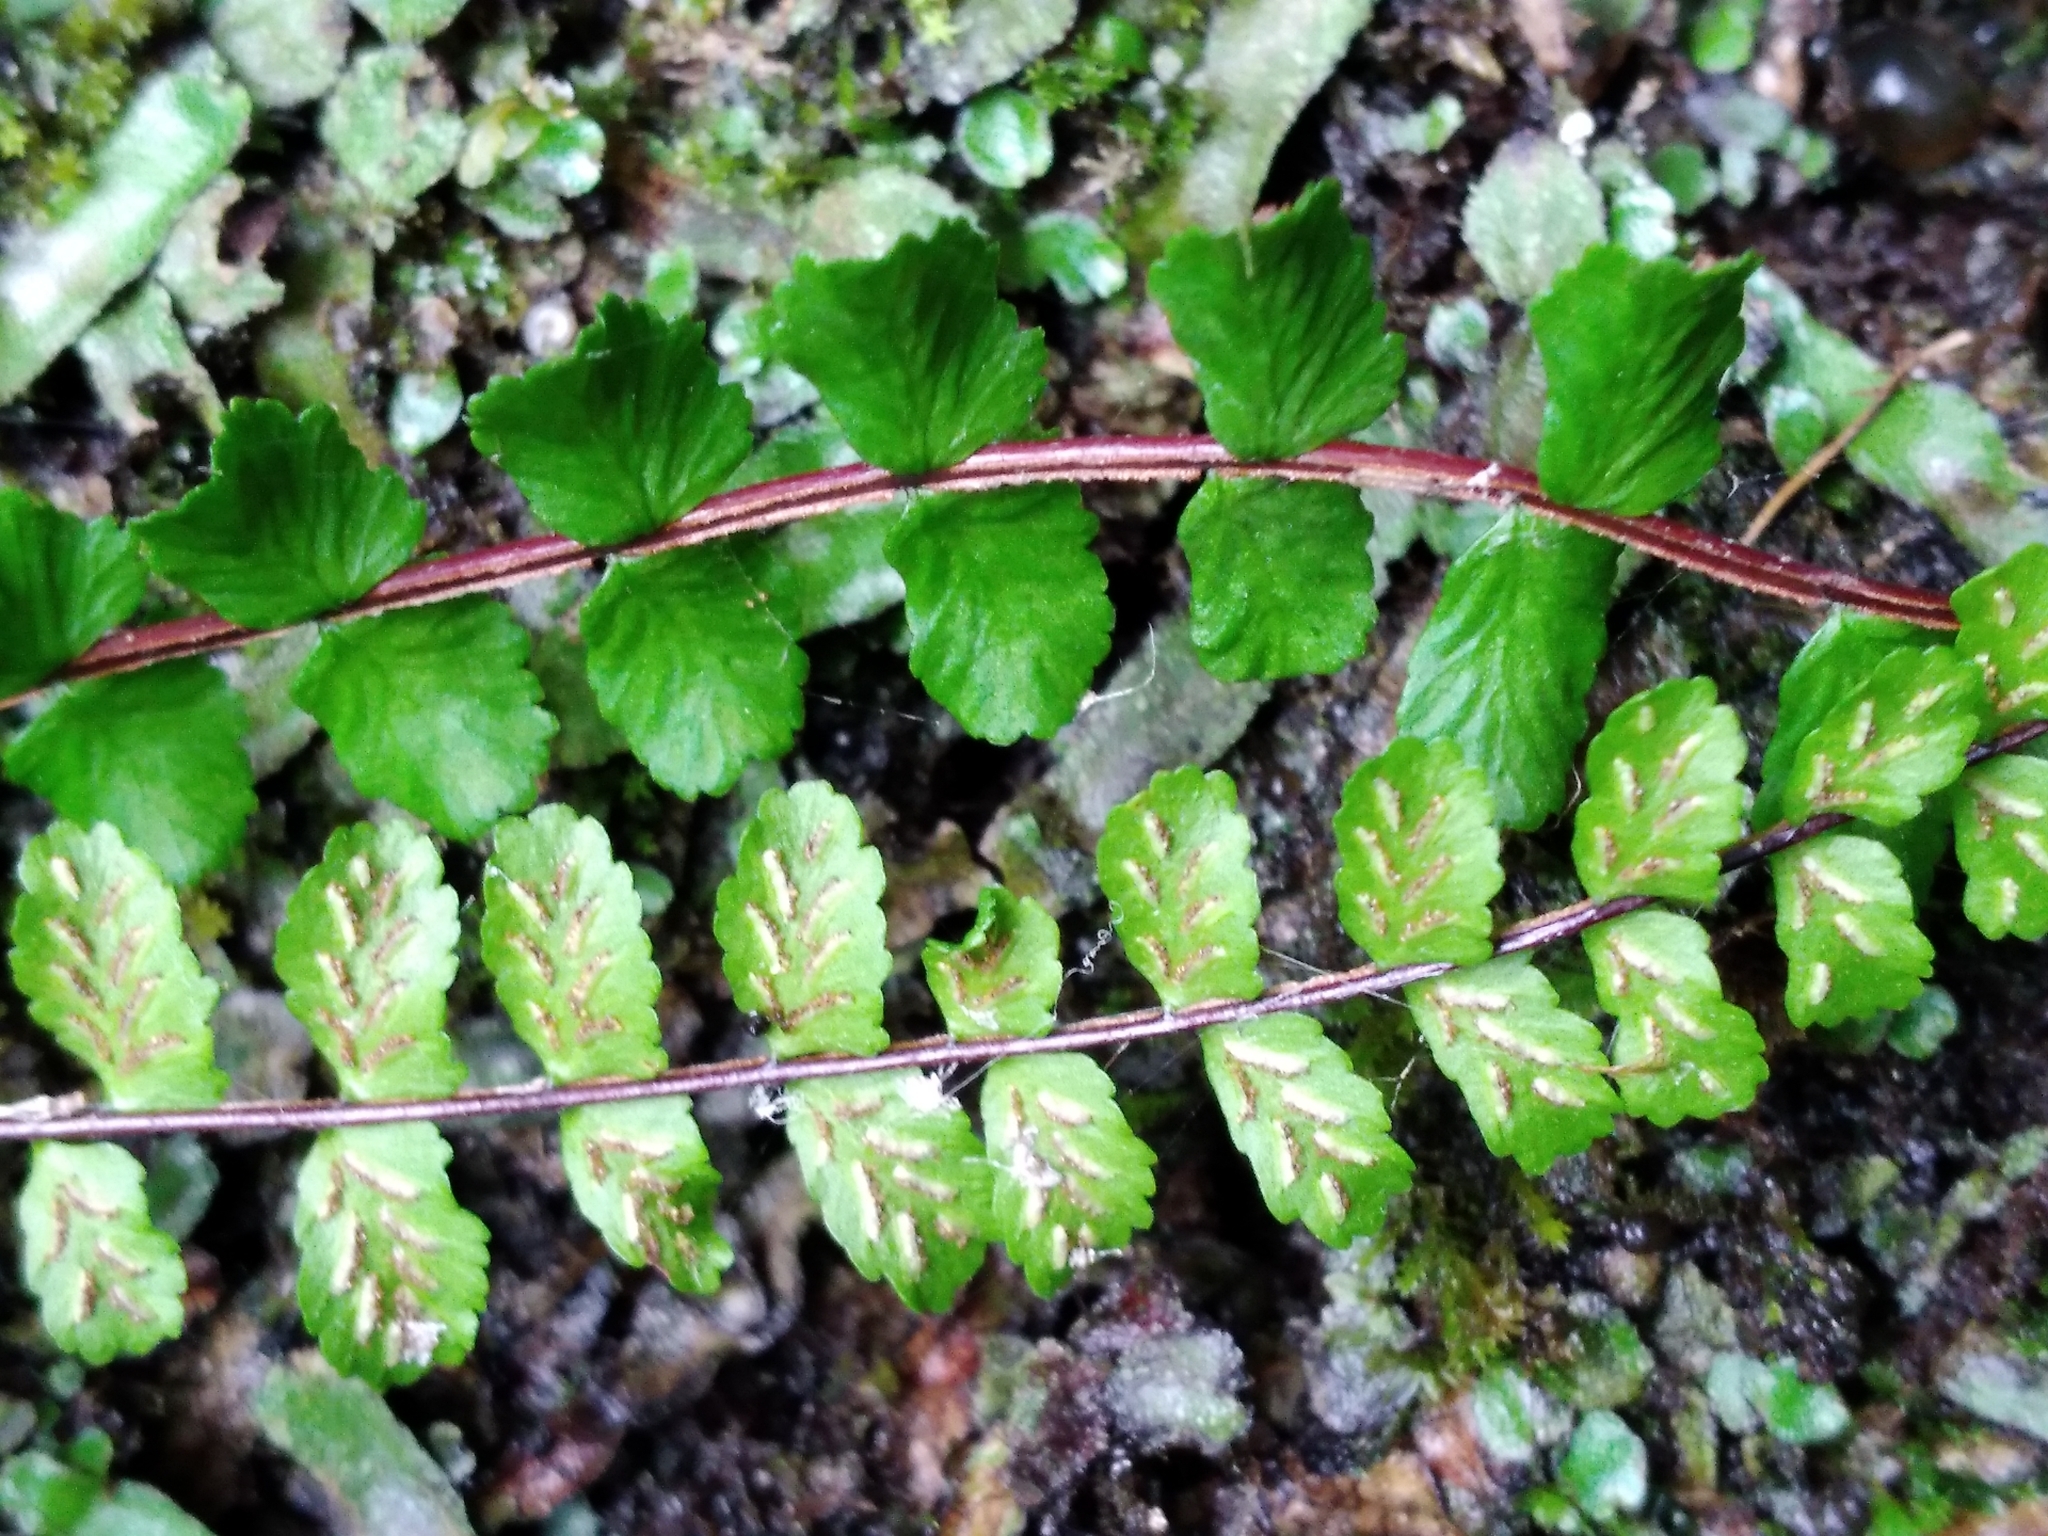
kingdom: Plantae
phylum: Tracheophyta
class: Polypodiopsida
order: Polypodiales
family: Aspleniaceae
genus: Asplenium
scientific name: Asplenium trichomanes
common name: Maidenhair spleenwort
